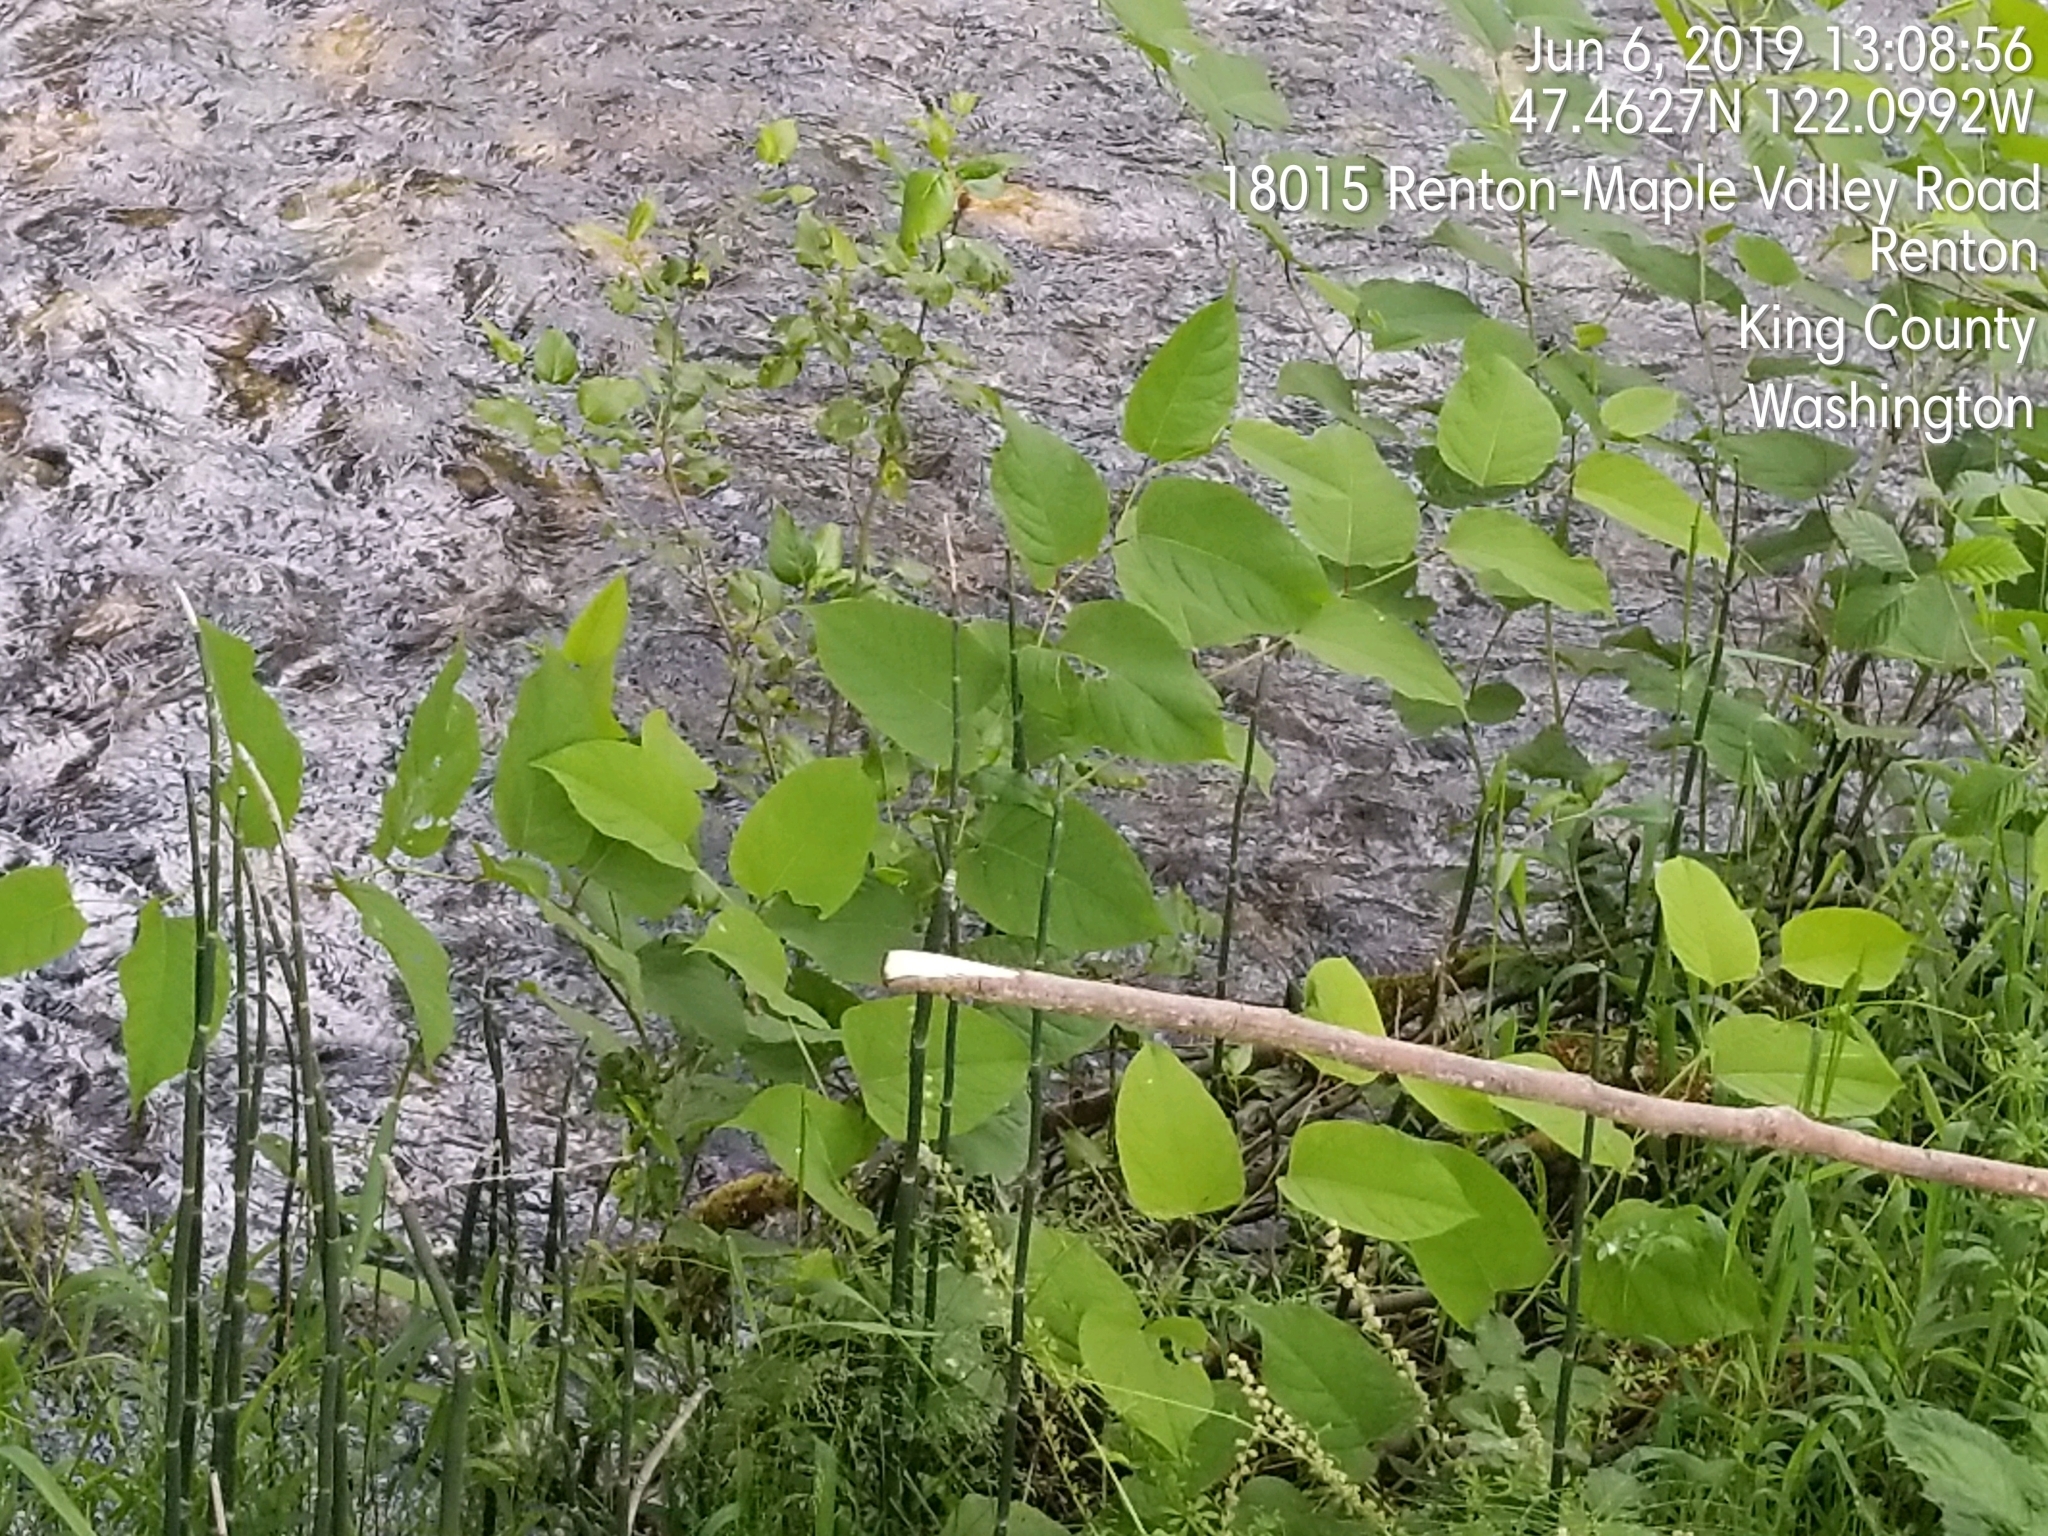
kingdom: Plantae
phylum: Tracheophyta
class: Magnoliopsida
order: Caryophyllales
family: Polygonaceae
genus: Reynoutria
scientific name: Reynoutria bohemica
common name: Bohemian knotweed
